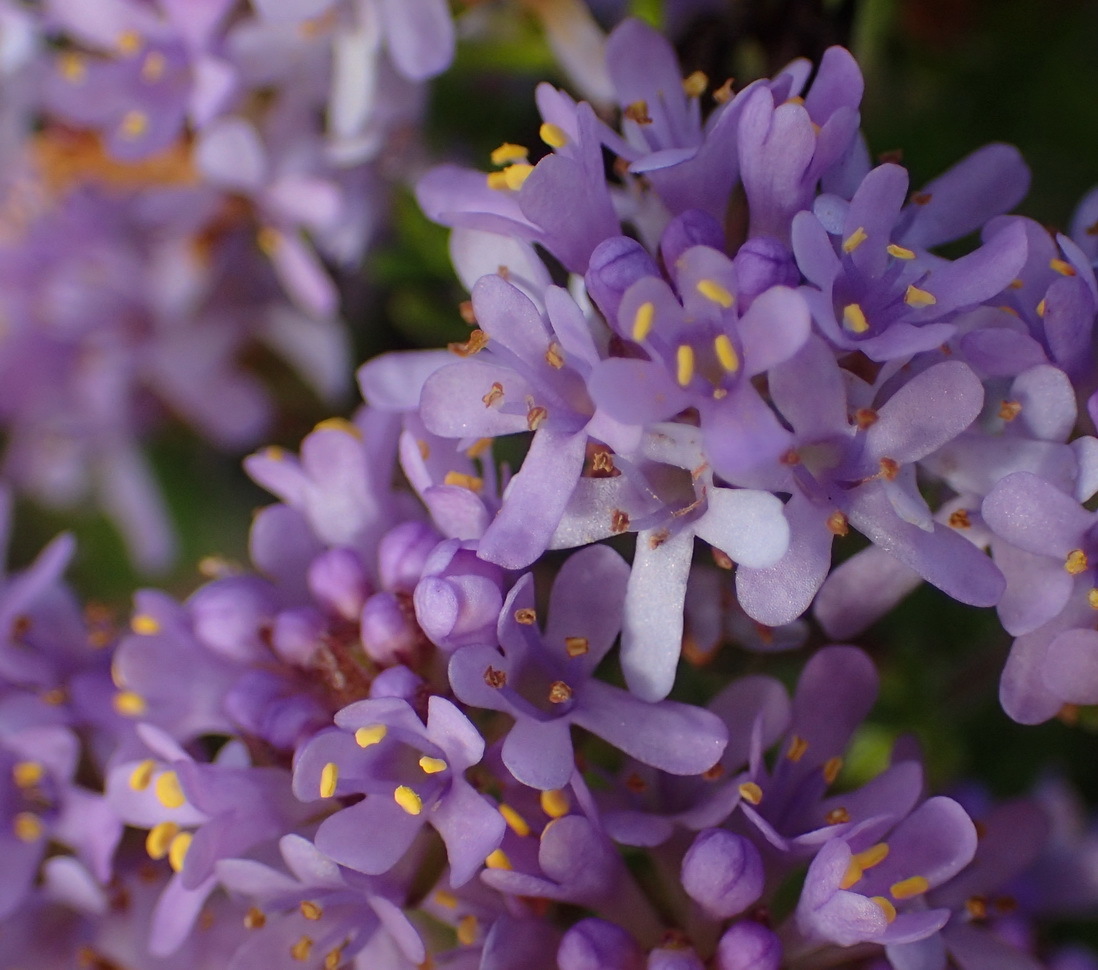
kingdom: Plantae
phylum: Tracheophyta
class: Magnoliopsida
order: Lamiales
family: Scrophulariaceae
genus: Selago
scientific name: Selago canescens
